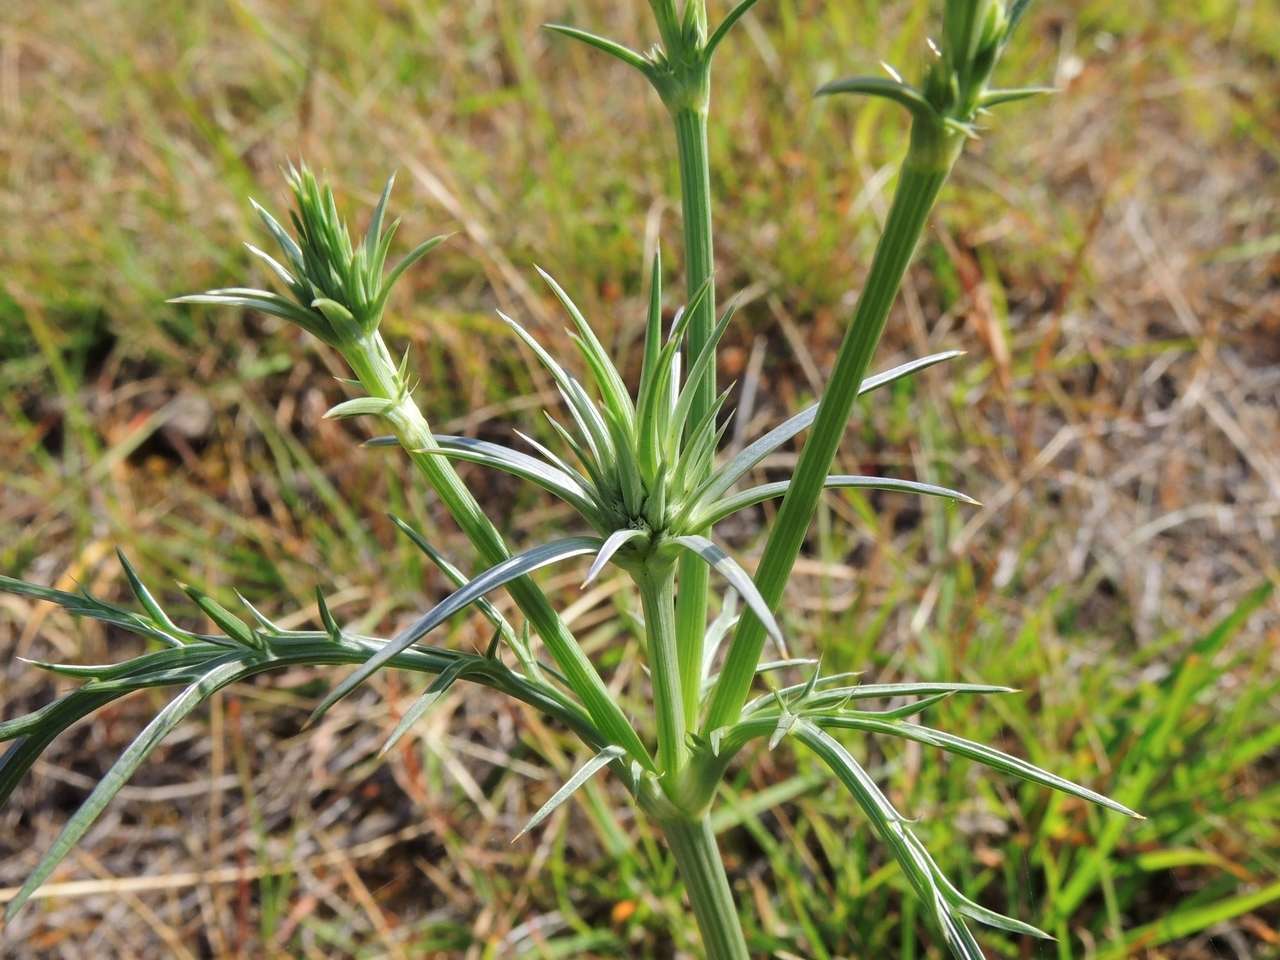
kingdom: Plantae
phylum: Tracheophyta
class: Magnoliopsida
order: Apiales
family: Apiaceae
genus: Eryngium
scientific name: Eryngium ovinum
